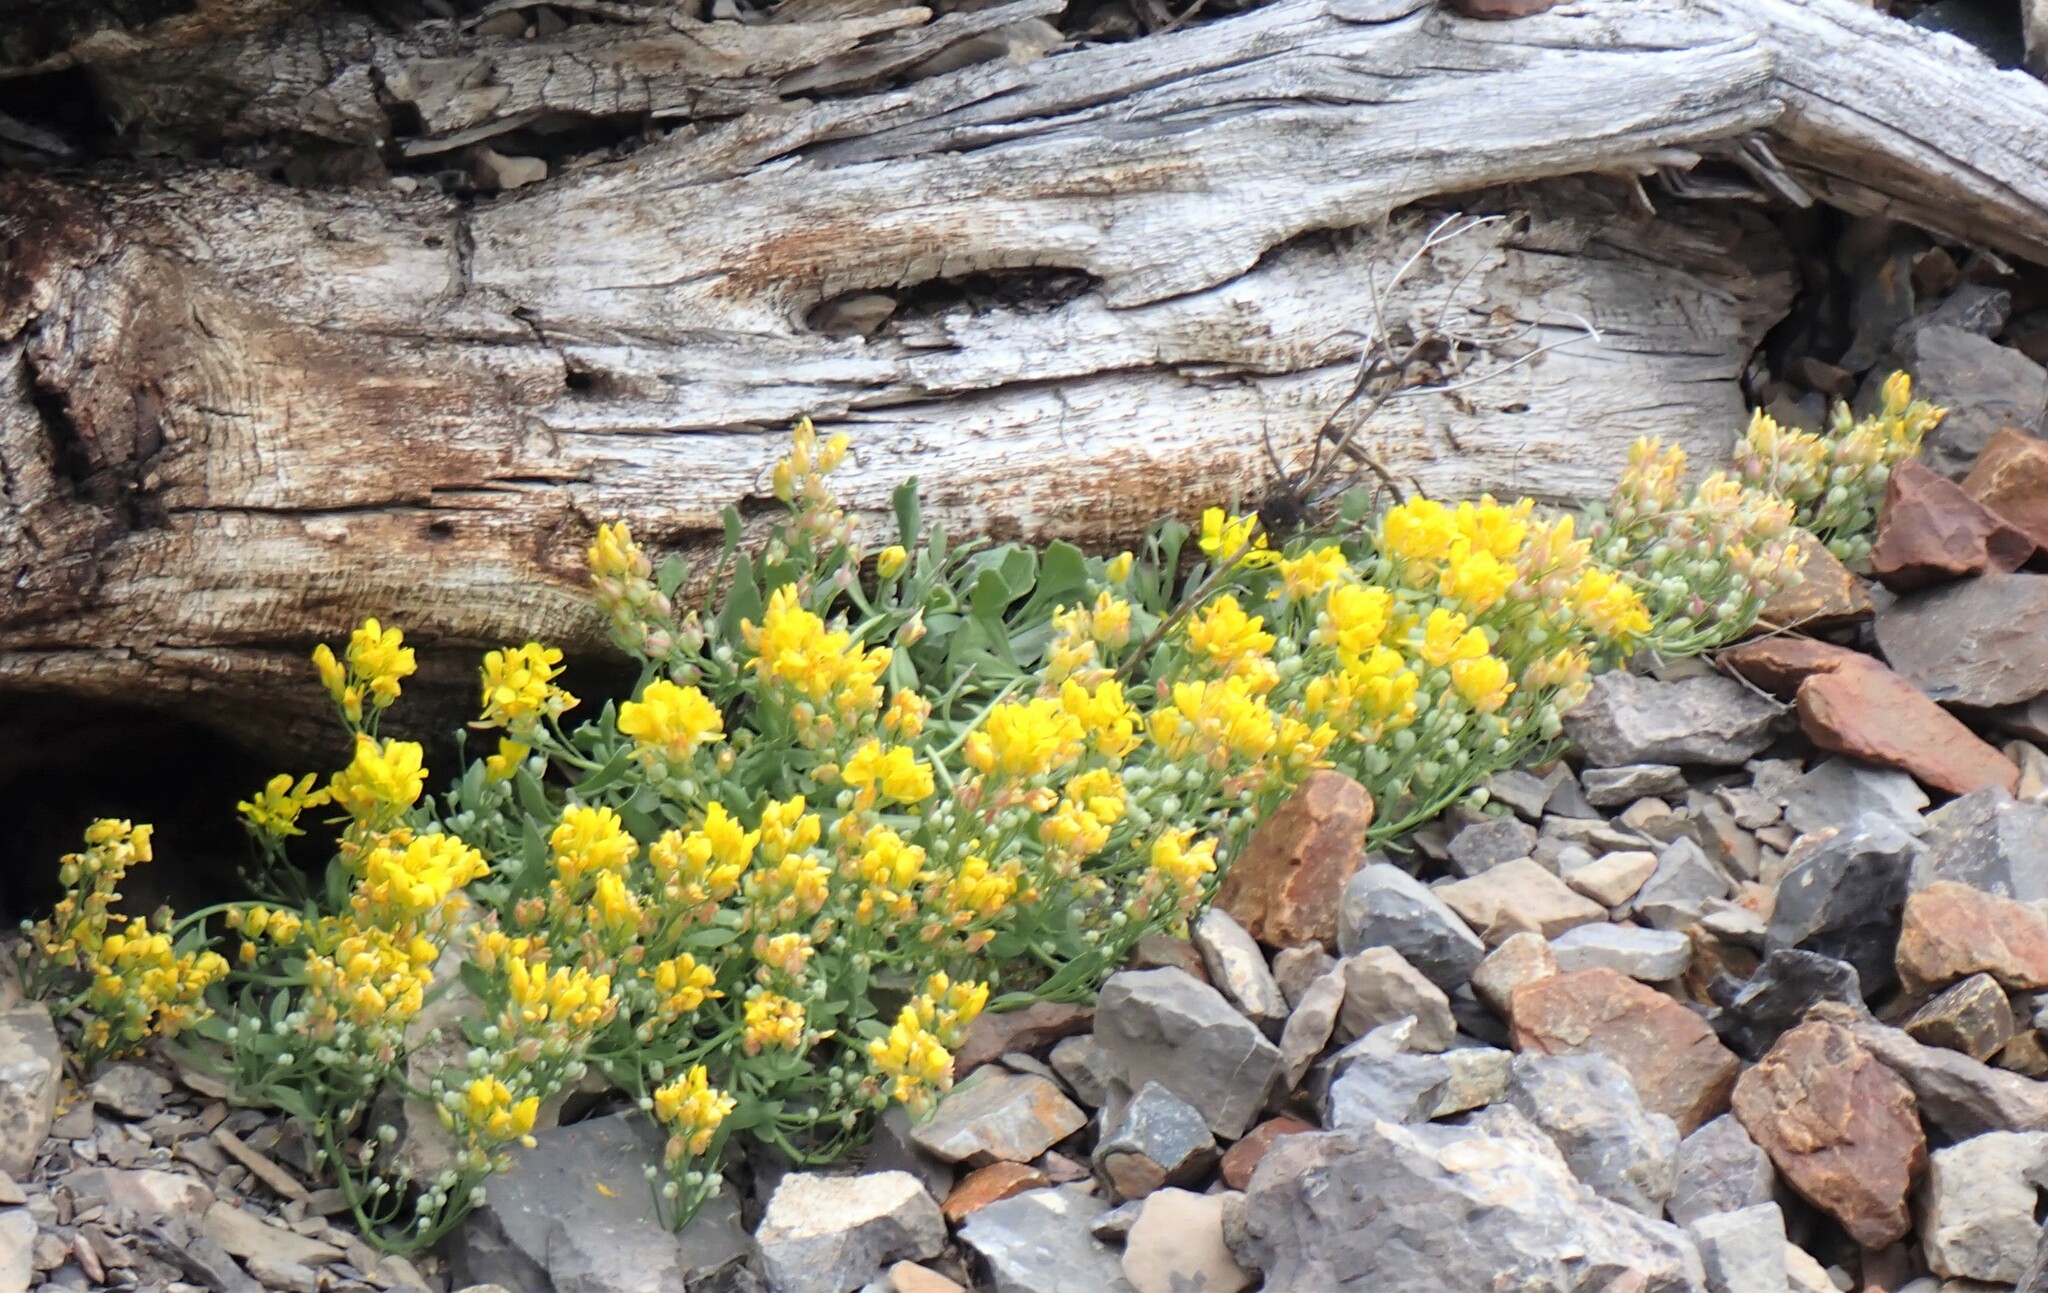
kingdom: Plantae
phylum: Tracheophyta
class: Magnoliopsida
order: Brassicales
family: Brassicaceae
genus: Physaria
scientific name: Physaria didymocarpa
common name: Common twinpod
